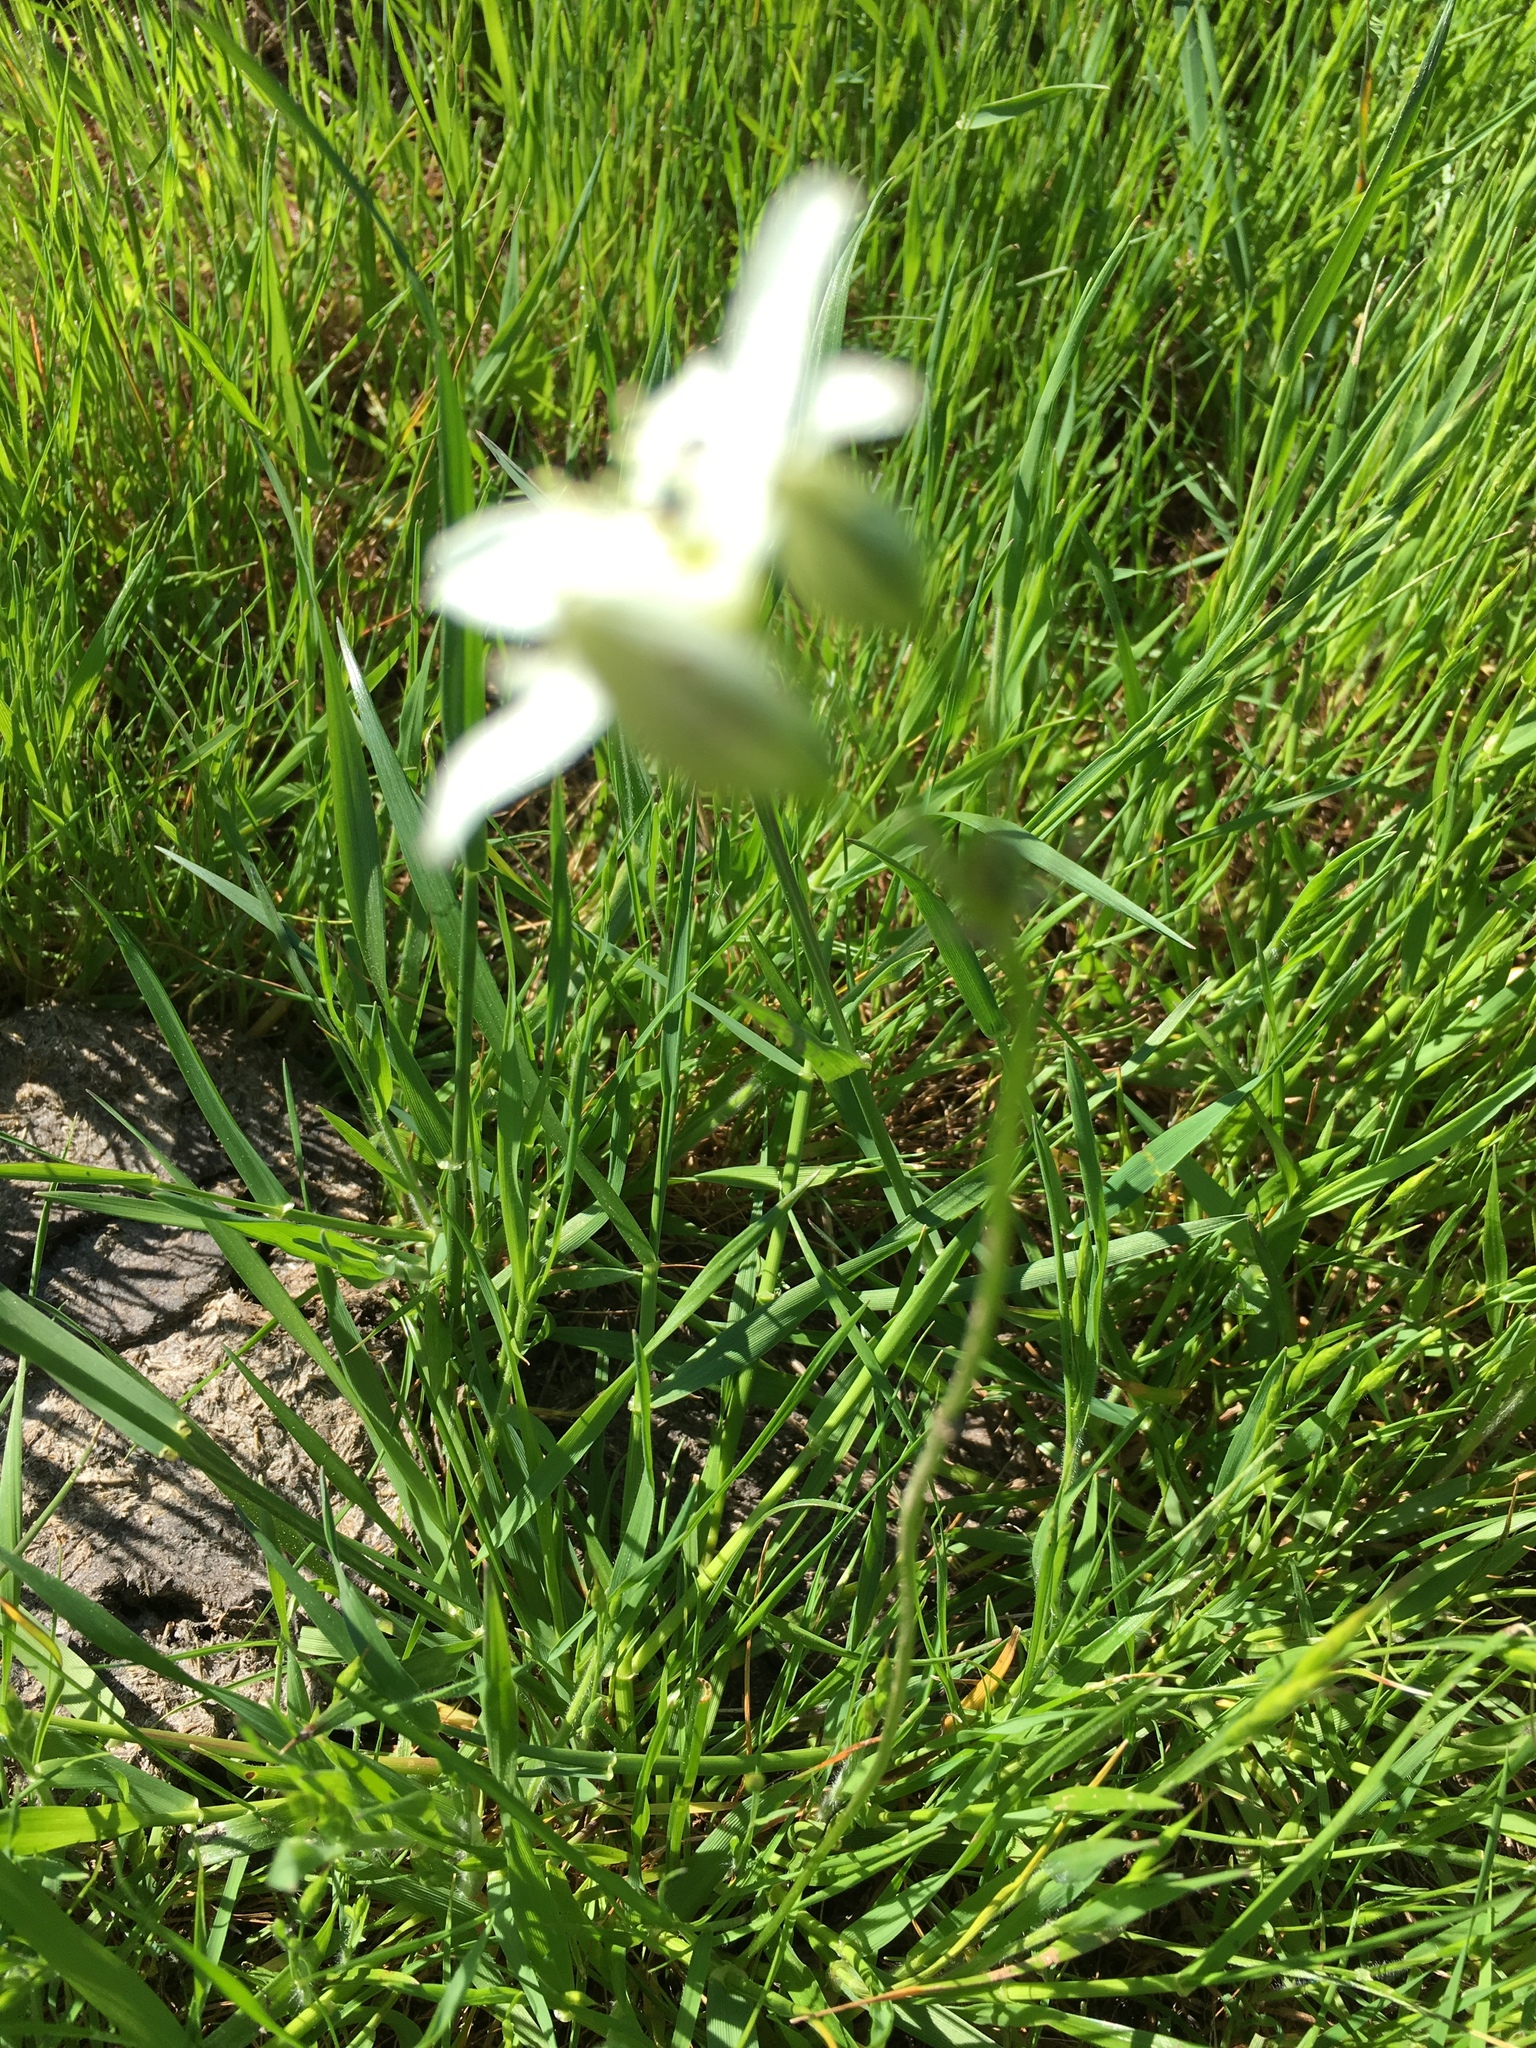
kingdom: Plantae
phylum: Tracheophyta
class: Liliopsida
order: Asparagales
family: Asparagaceae
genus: Triteleia
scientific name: Triteleia hyacinthina
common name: White brodiaea
